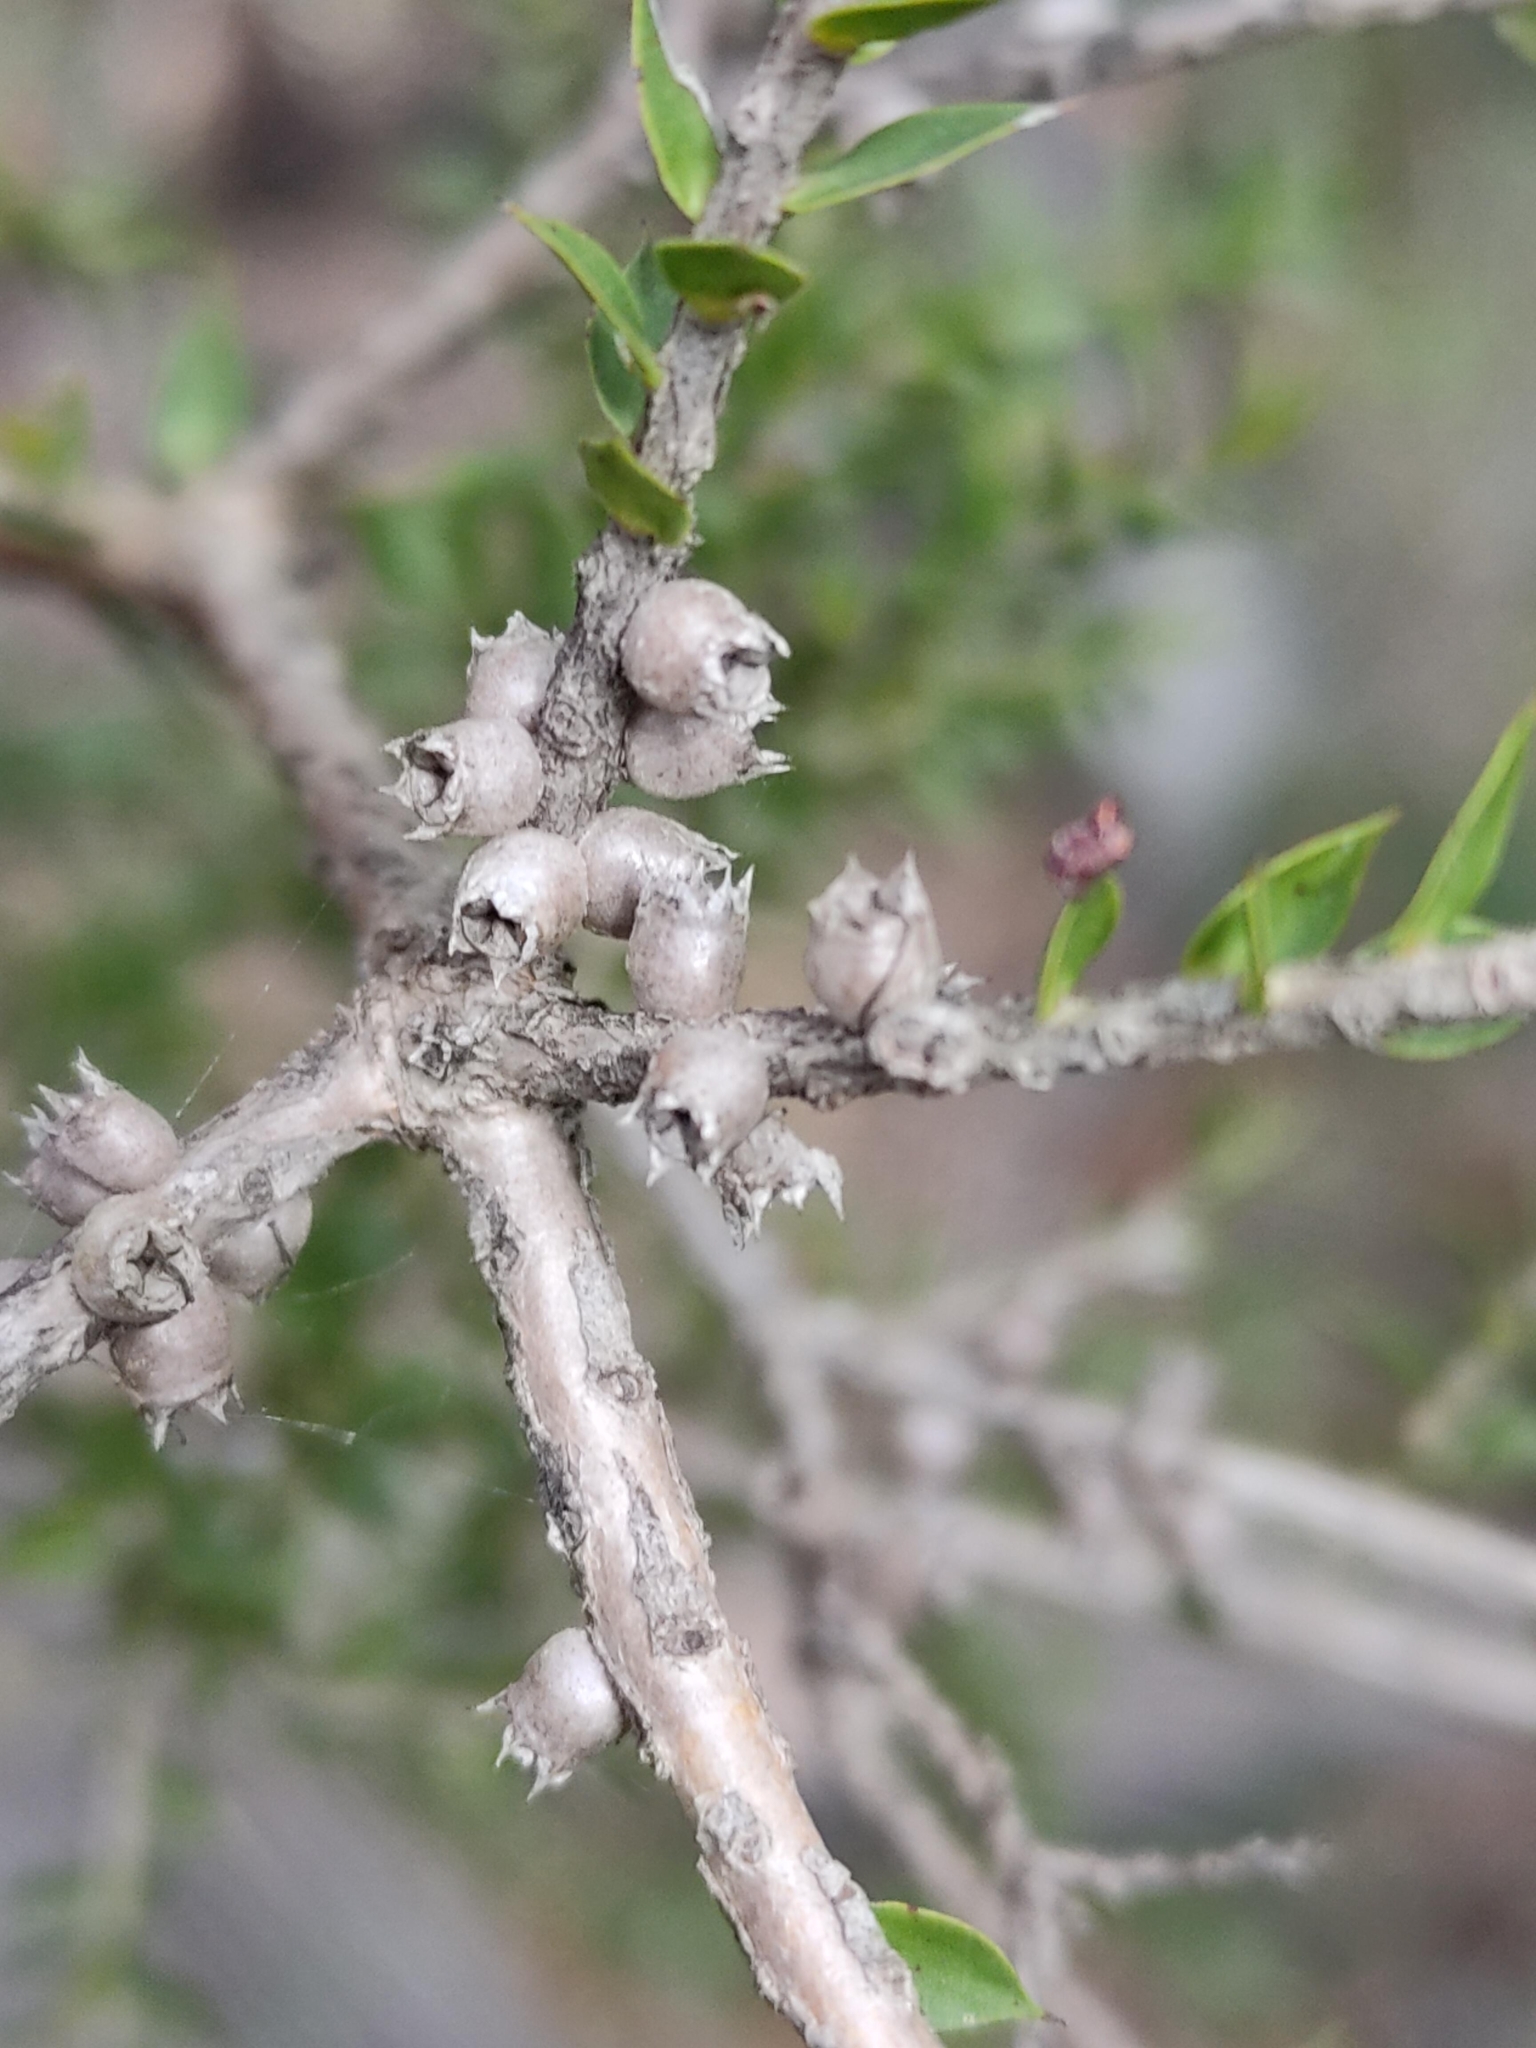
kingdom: Plantae
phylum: Tracheophyta
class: Magnoliopsida
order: Myrtales
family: Myrtaceae
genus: Melaleuca
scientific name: Melaleuca styphelioides
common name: Prickly paperbark
